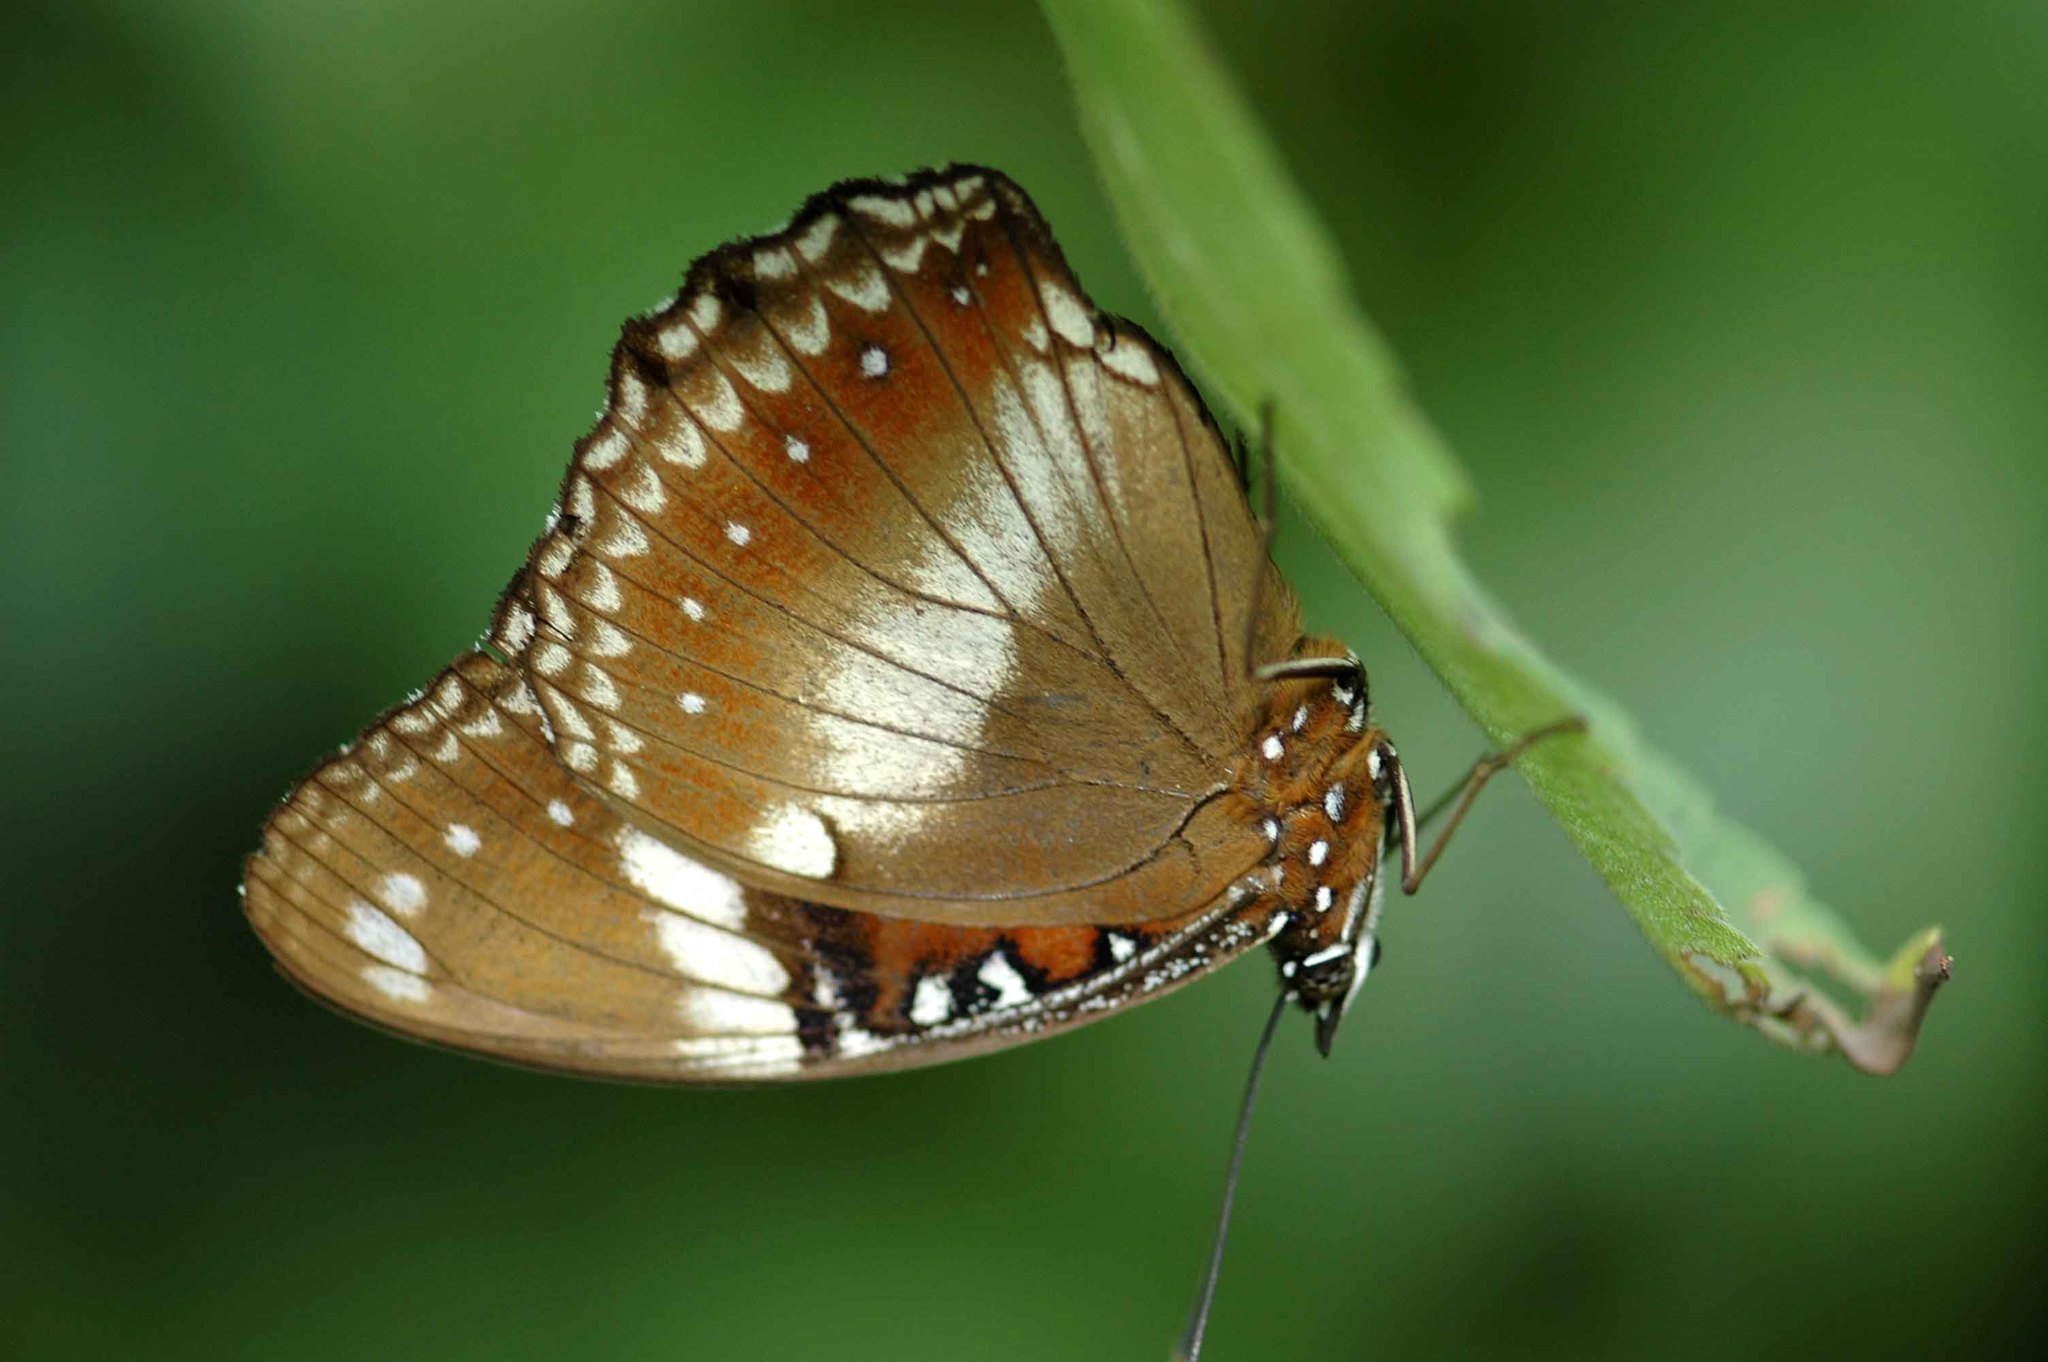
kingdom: Animalia
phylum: Arthropoda
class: Insecta
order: Lepidoptera
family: Nymphalidae
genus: Hypolimnas
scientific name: Hypolimnas bolina
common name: Great eggfly
